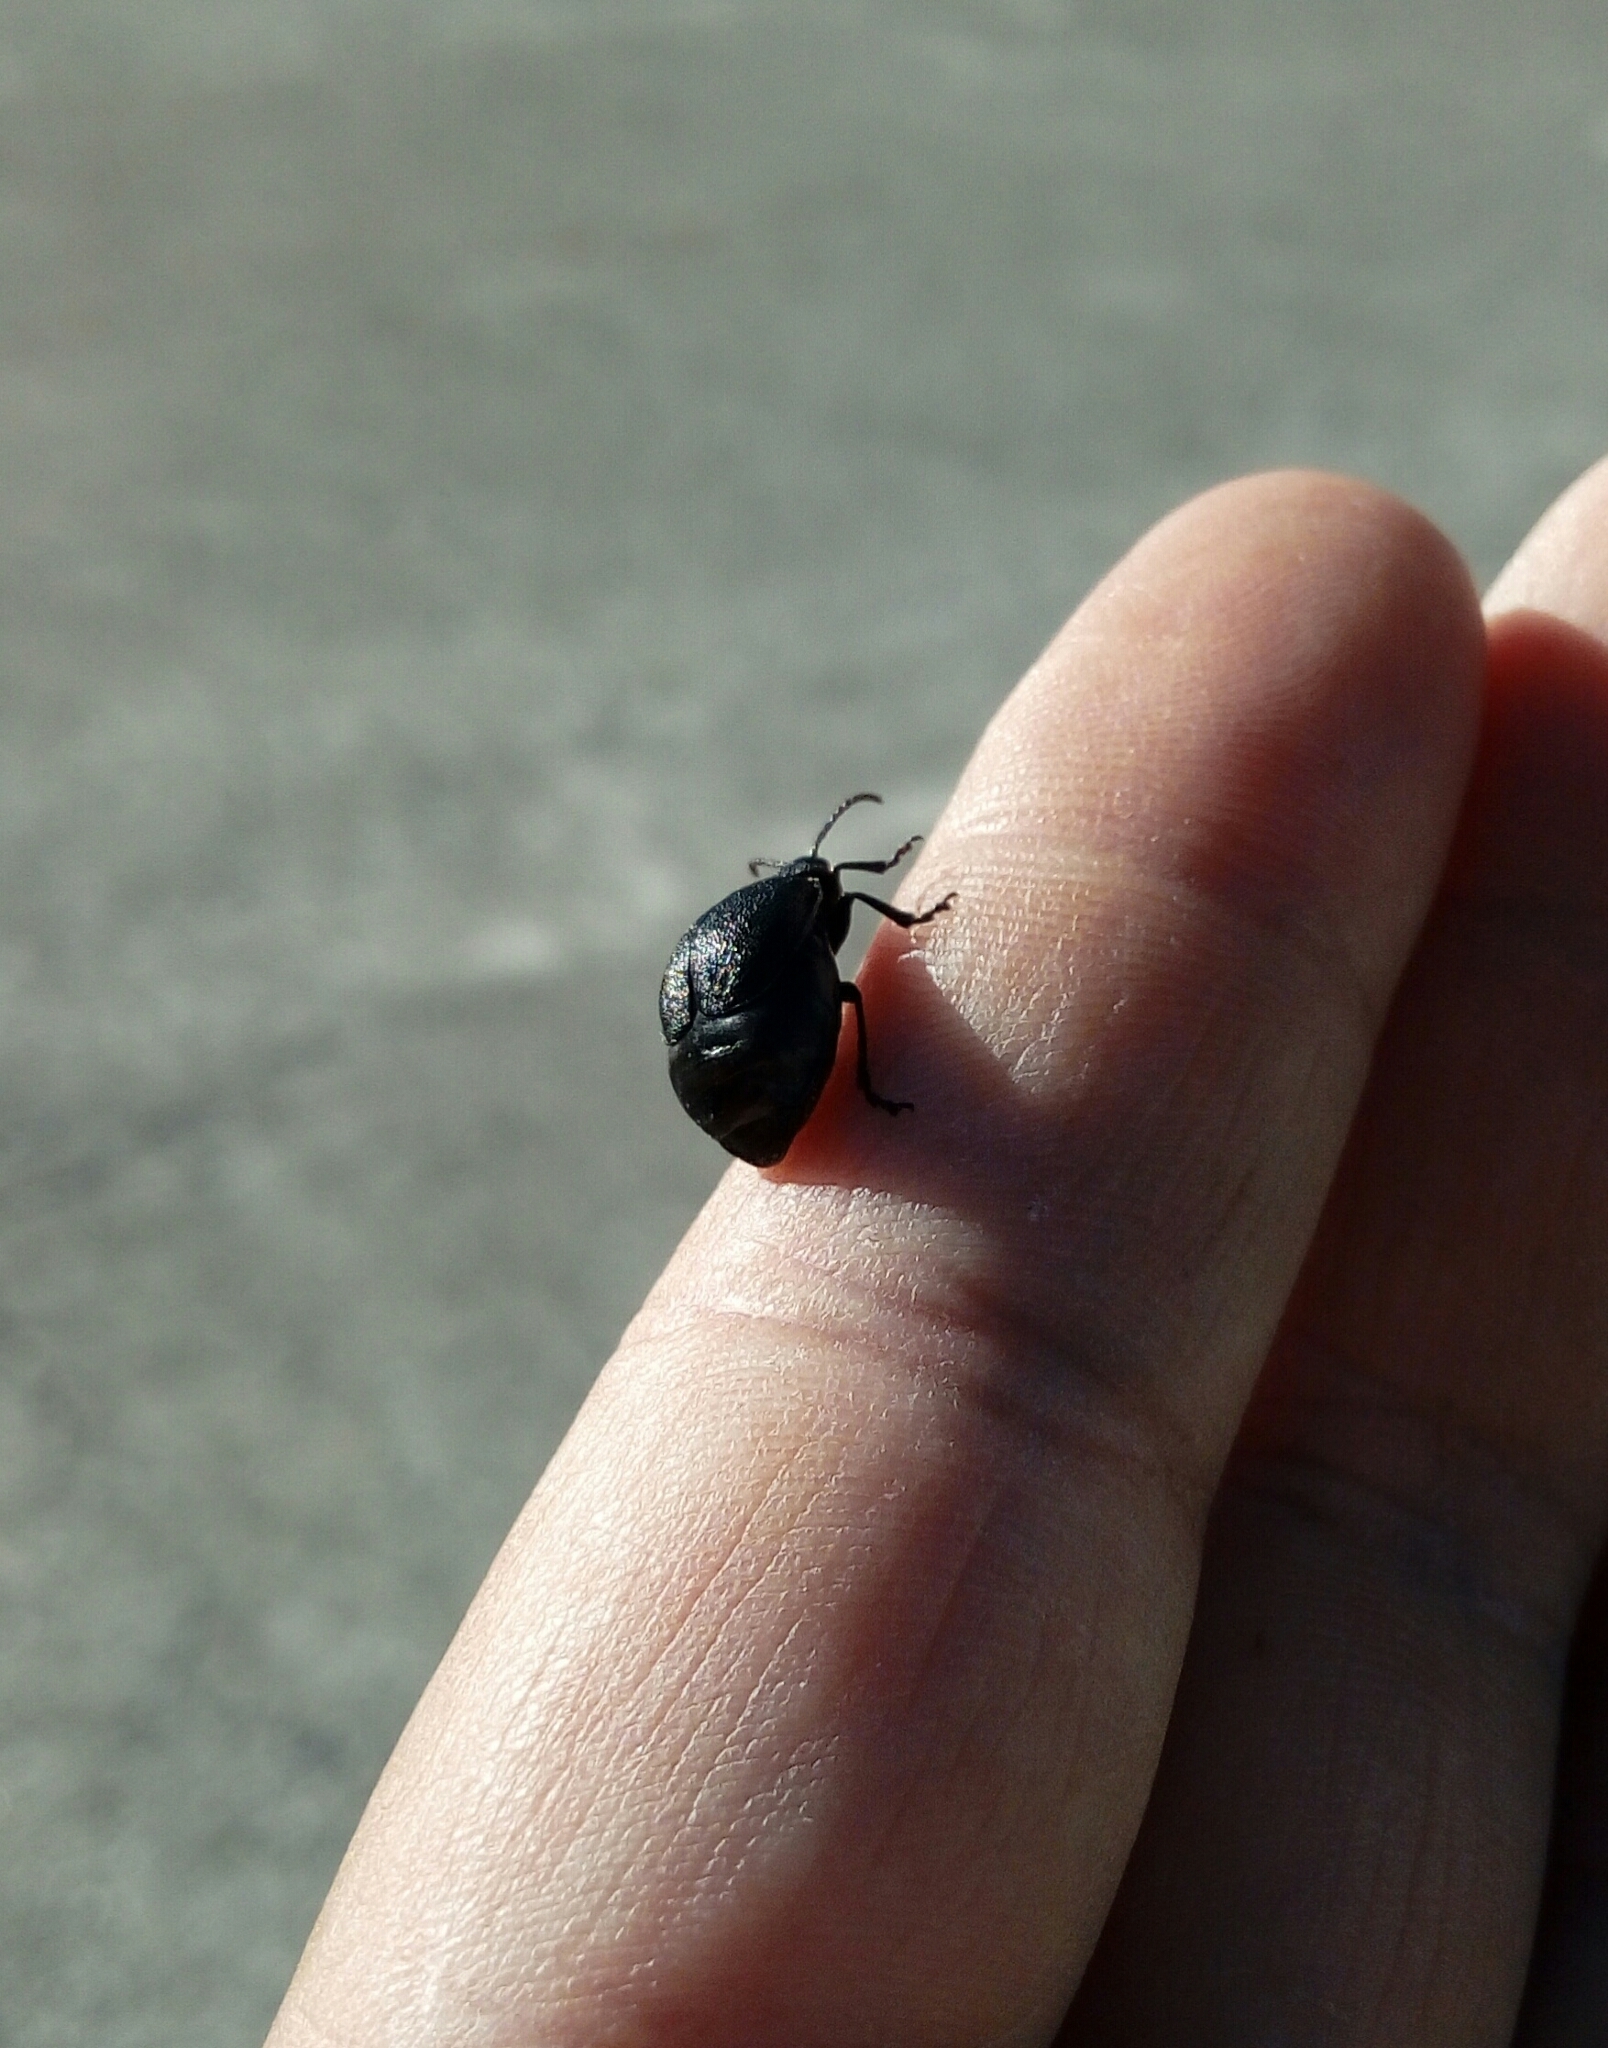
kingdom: Animalia
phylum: Arthropoda
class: Insecta
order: Coleoptera
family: Chrysomelidae
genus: Galeruca
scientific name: Galeruca tanaceti
